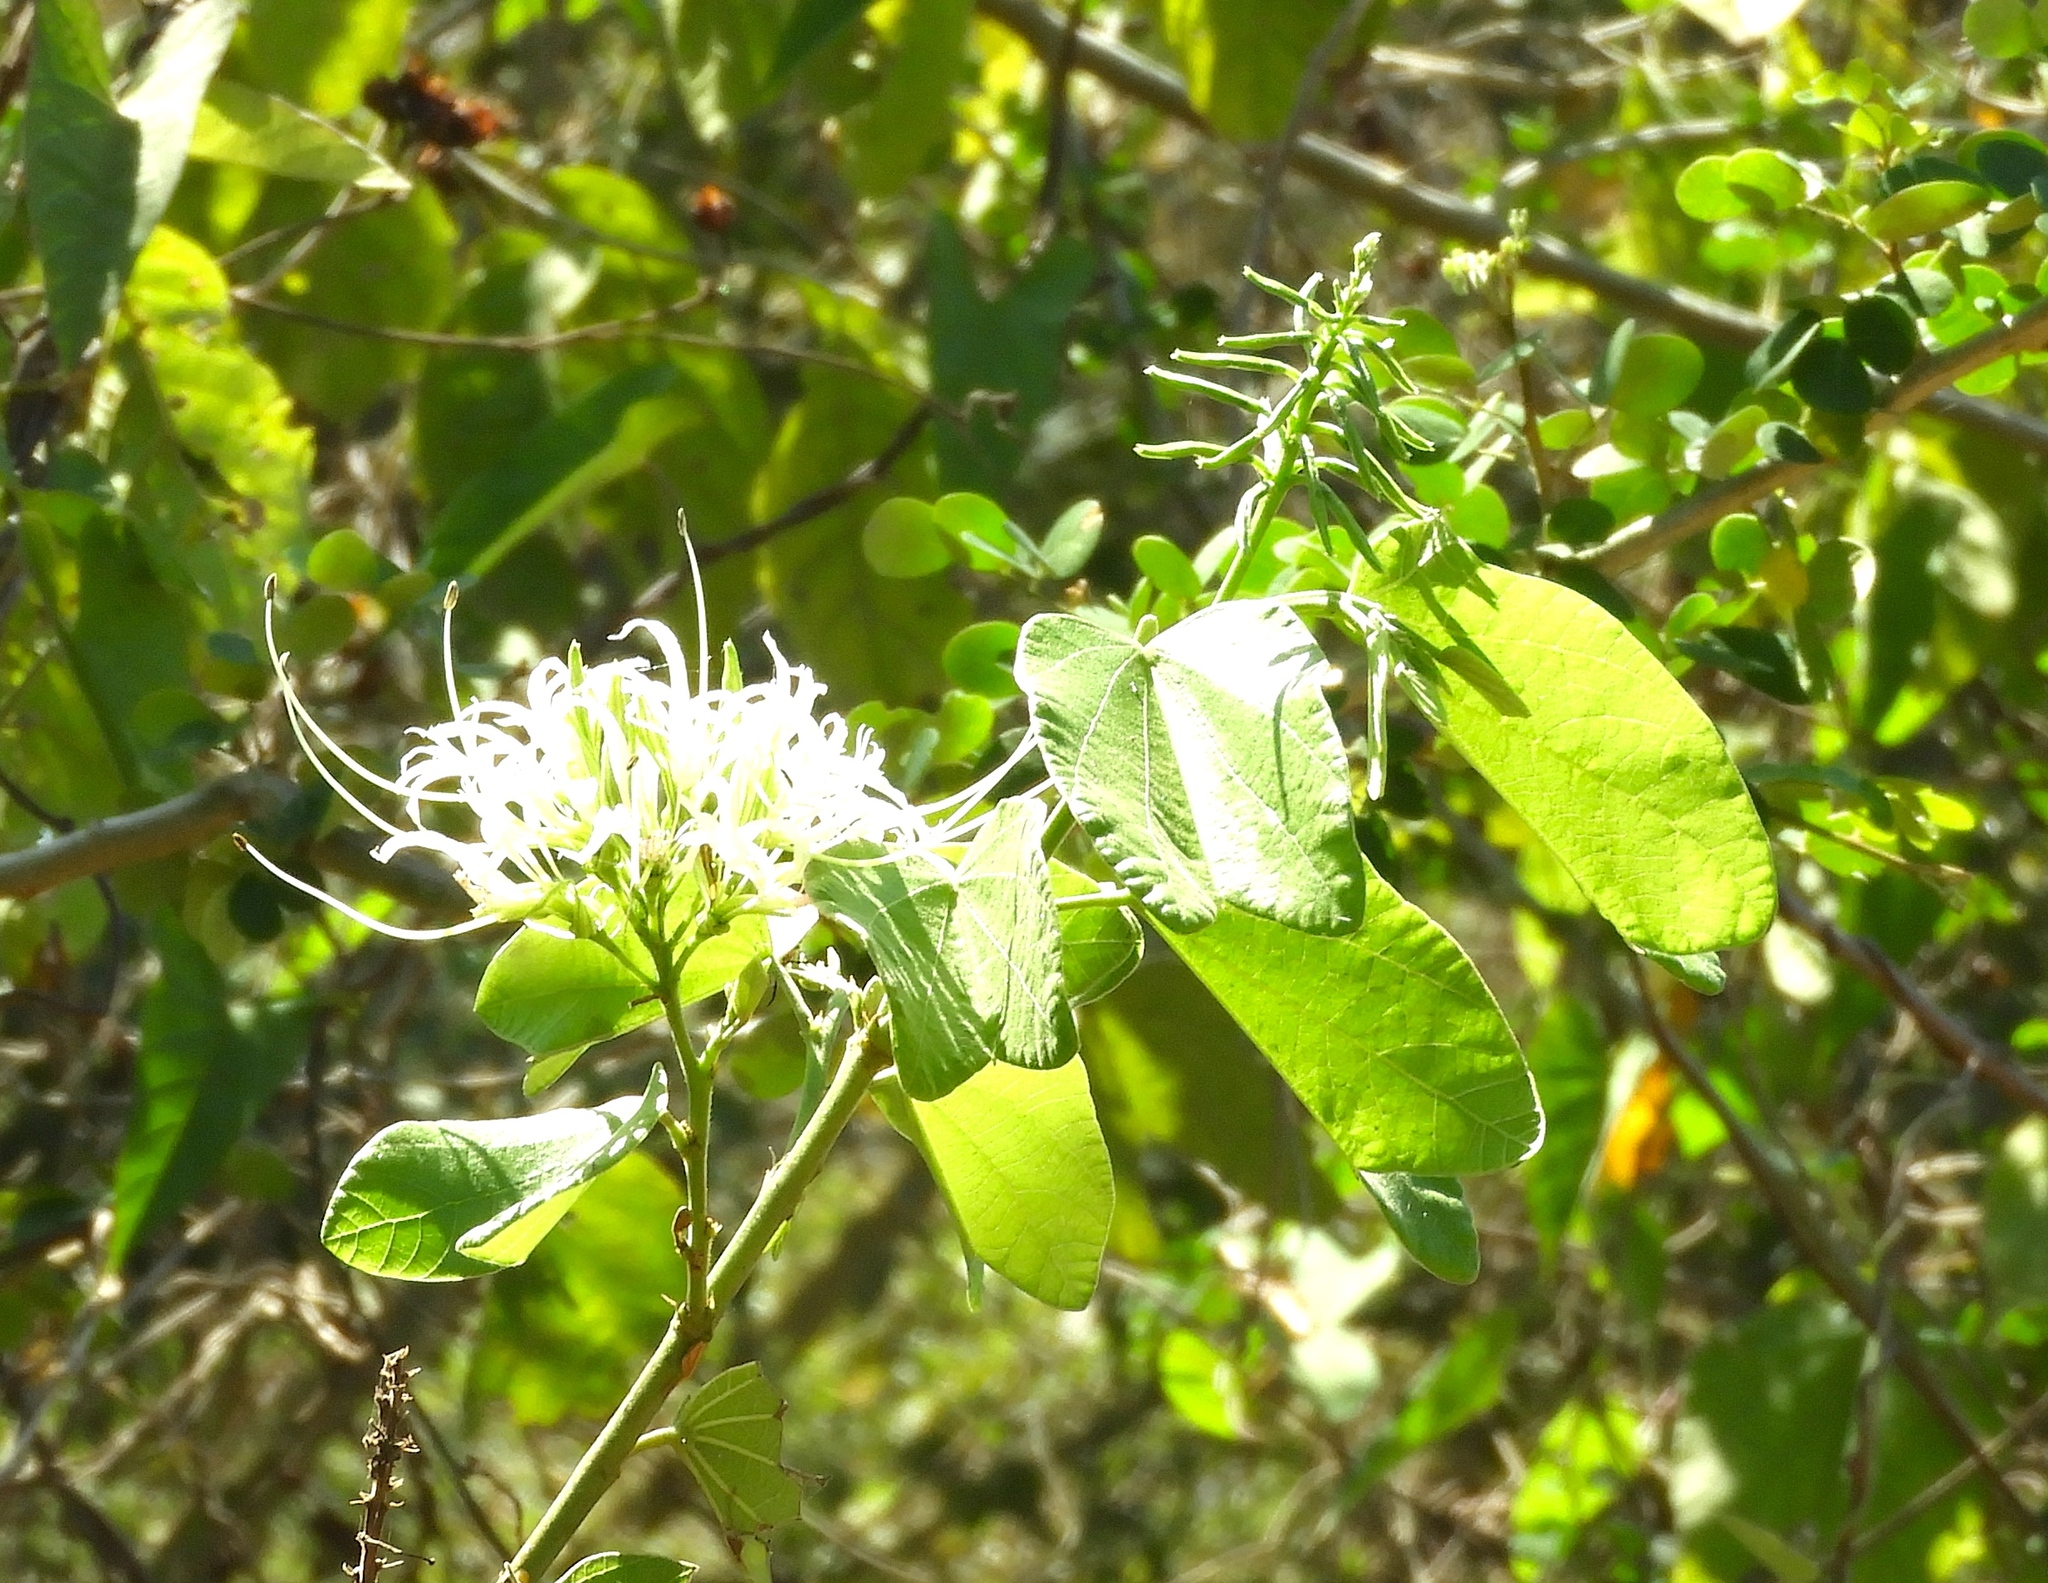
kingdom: Plantae
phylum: Tracheophyta
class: Magnoliopsida
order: Fabales
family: Fabaceae
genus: Bauhinia
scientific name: Bauhinia divaricata
